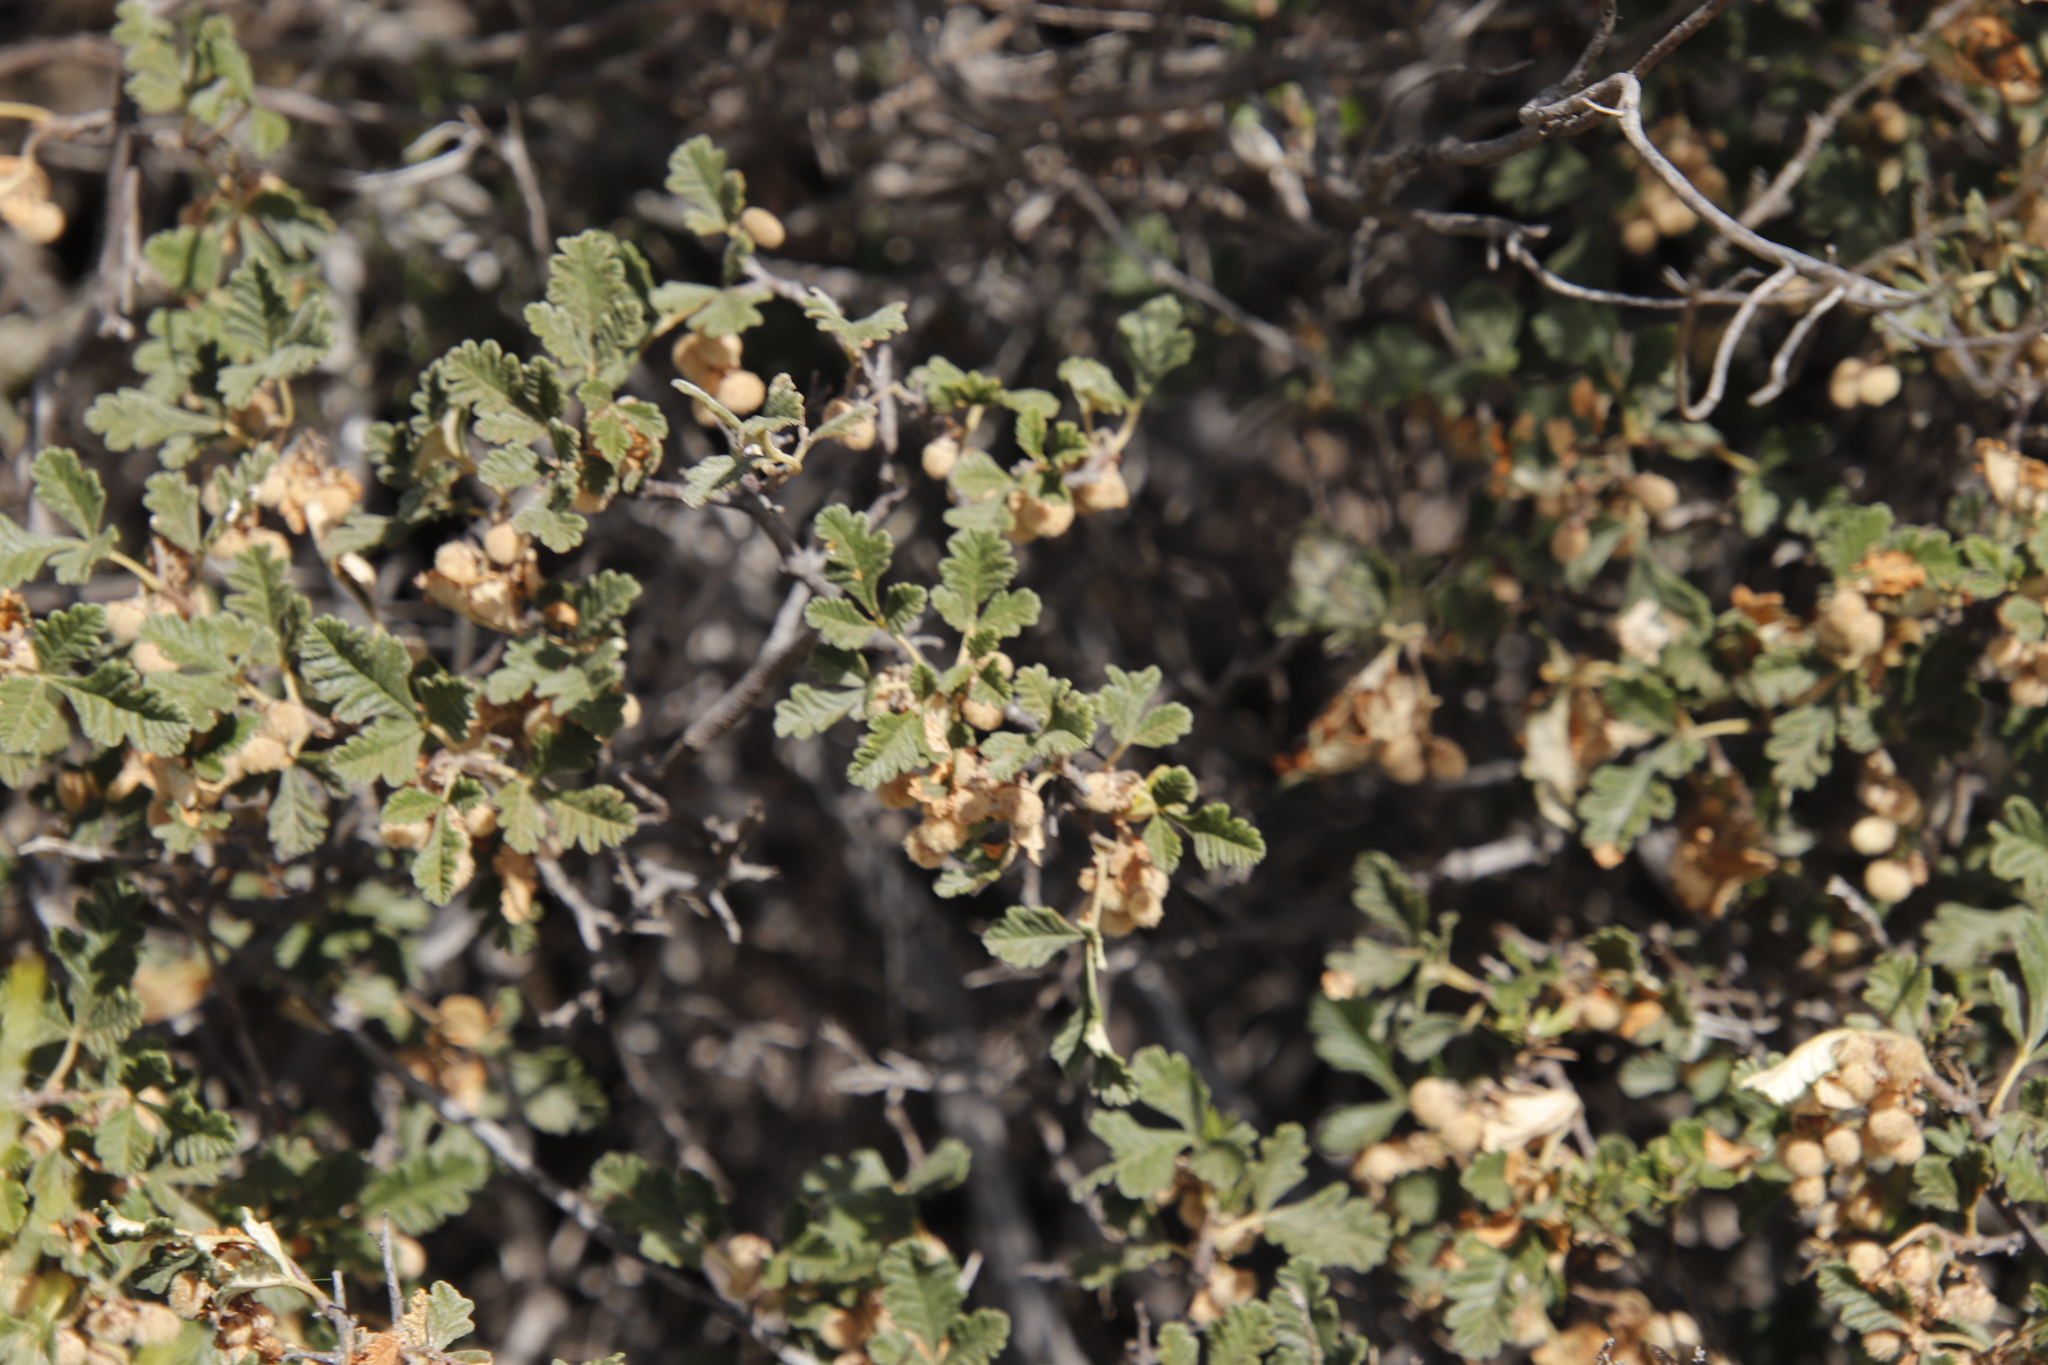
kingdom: Plantae
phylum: Tracheophyta
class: Magnoliopsida
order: Sapindales
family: Anacardiaceae
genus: Searsia
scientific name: Searsia incisa
